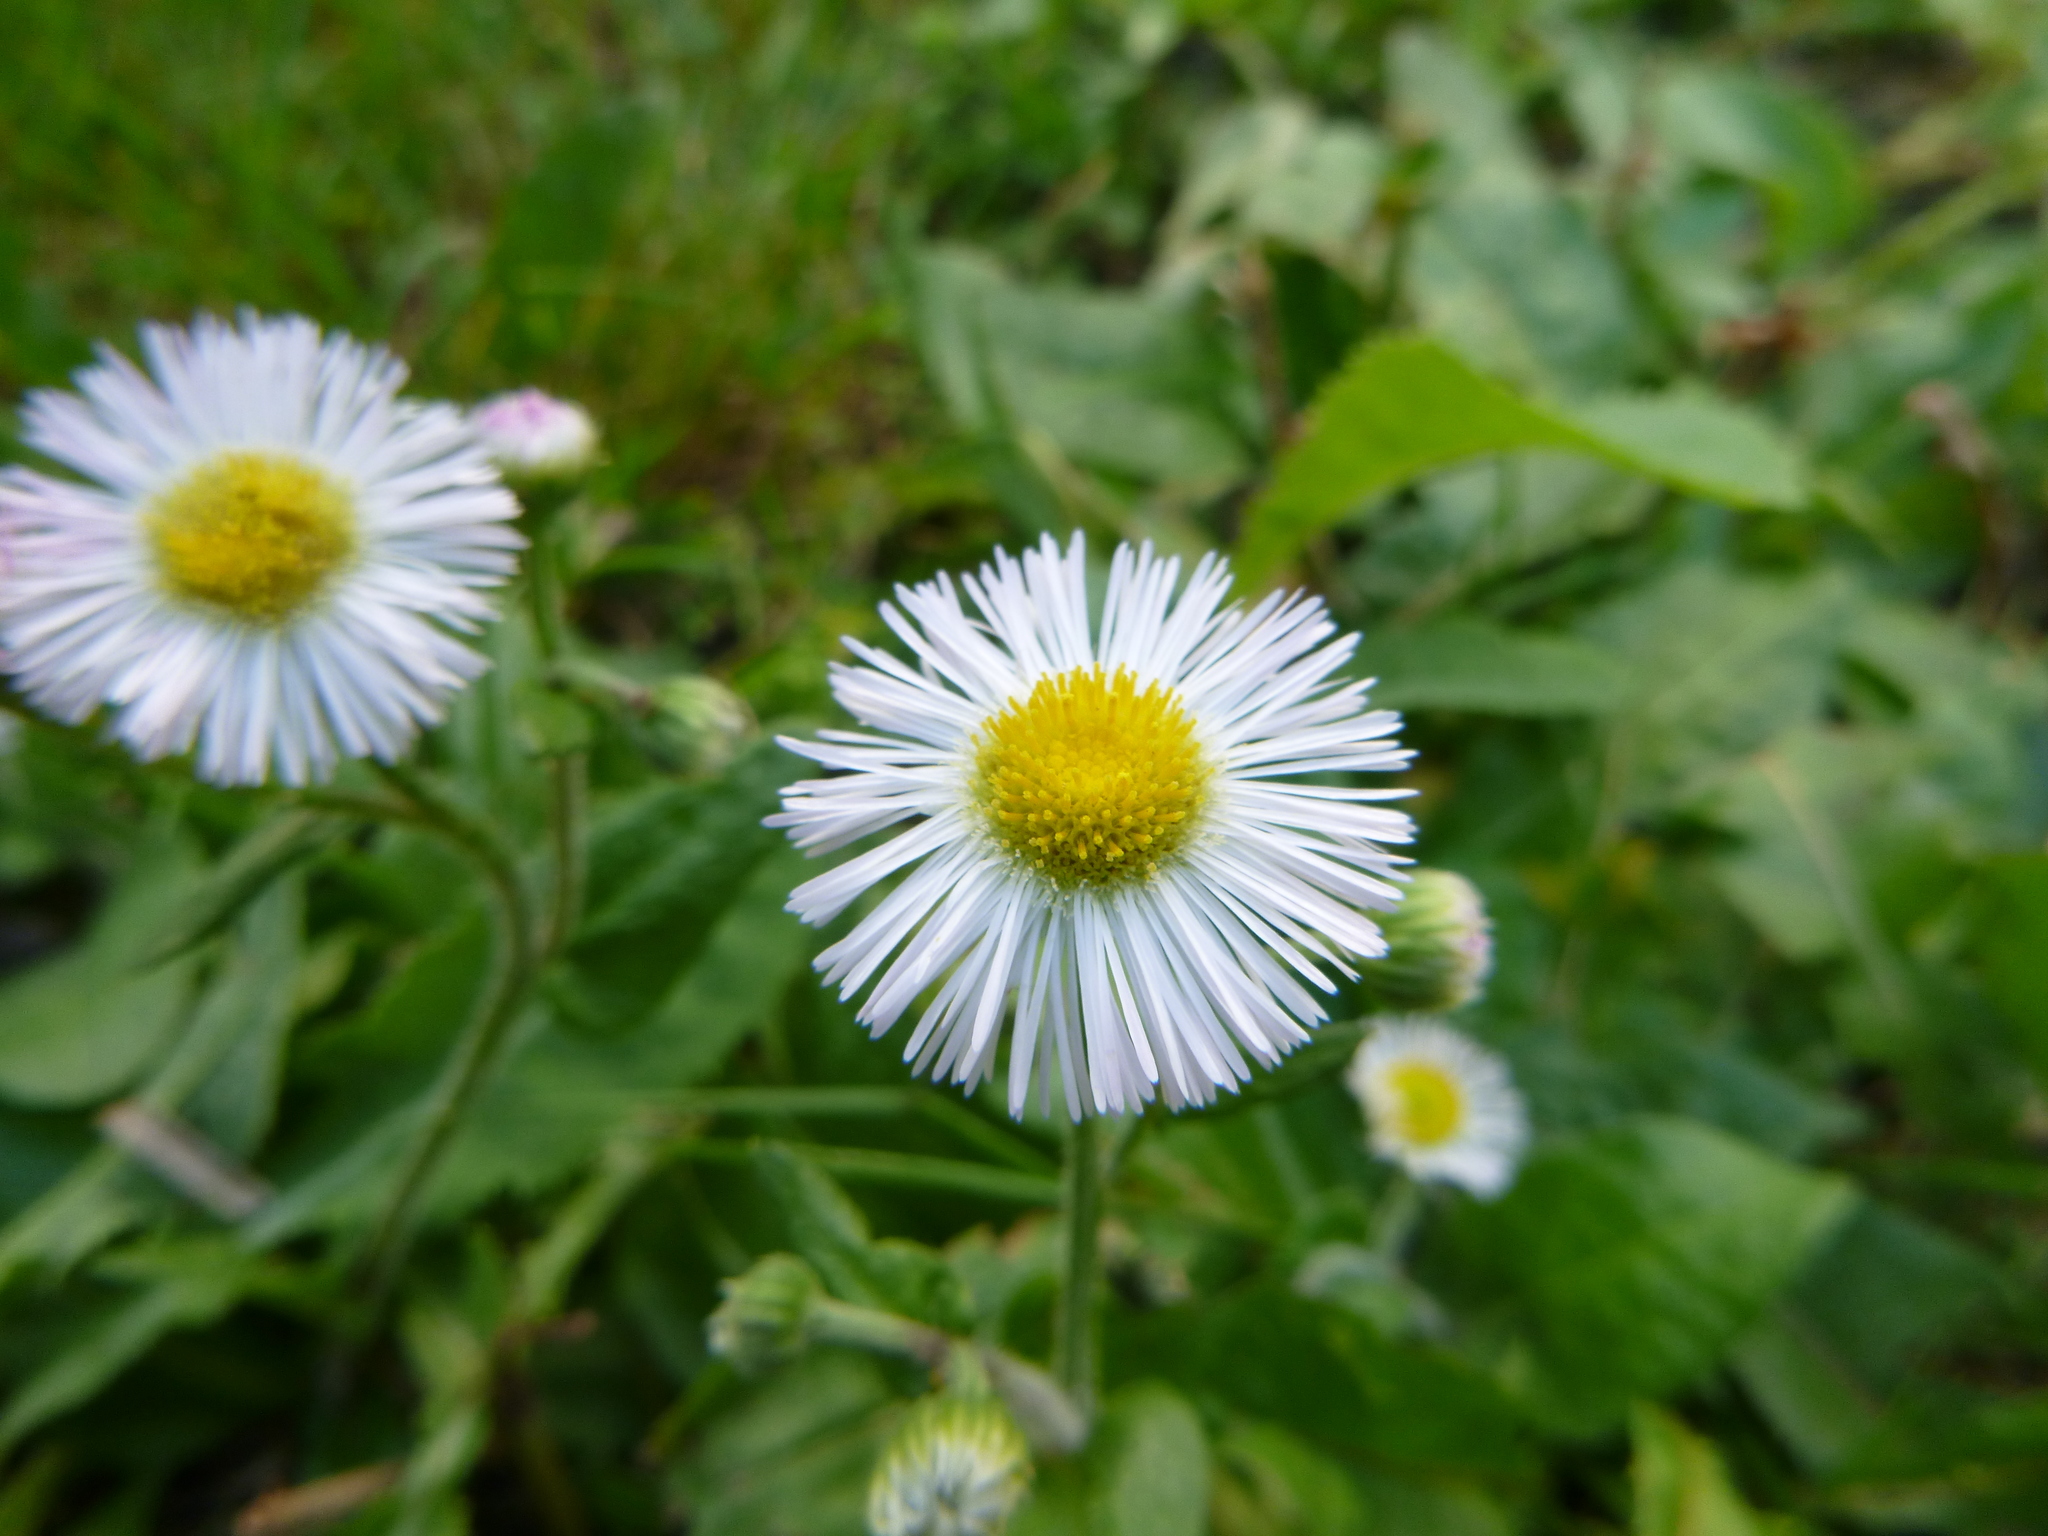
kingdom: Plantae
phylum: Tracheophyta
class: Magnoliopsida
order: Asterales
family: Asteraceae
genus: Erigeron
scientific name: Erigeron philadelphicus
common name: Robin's-plantain
